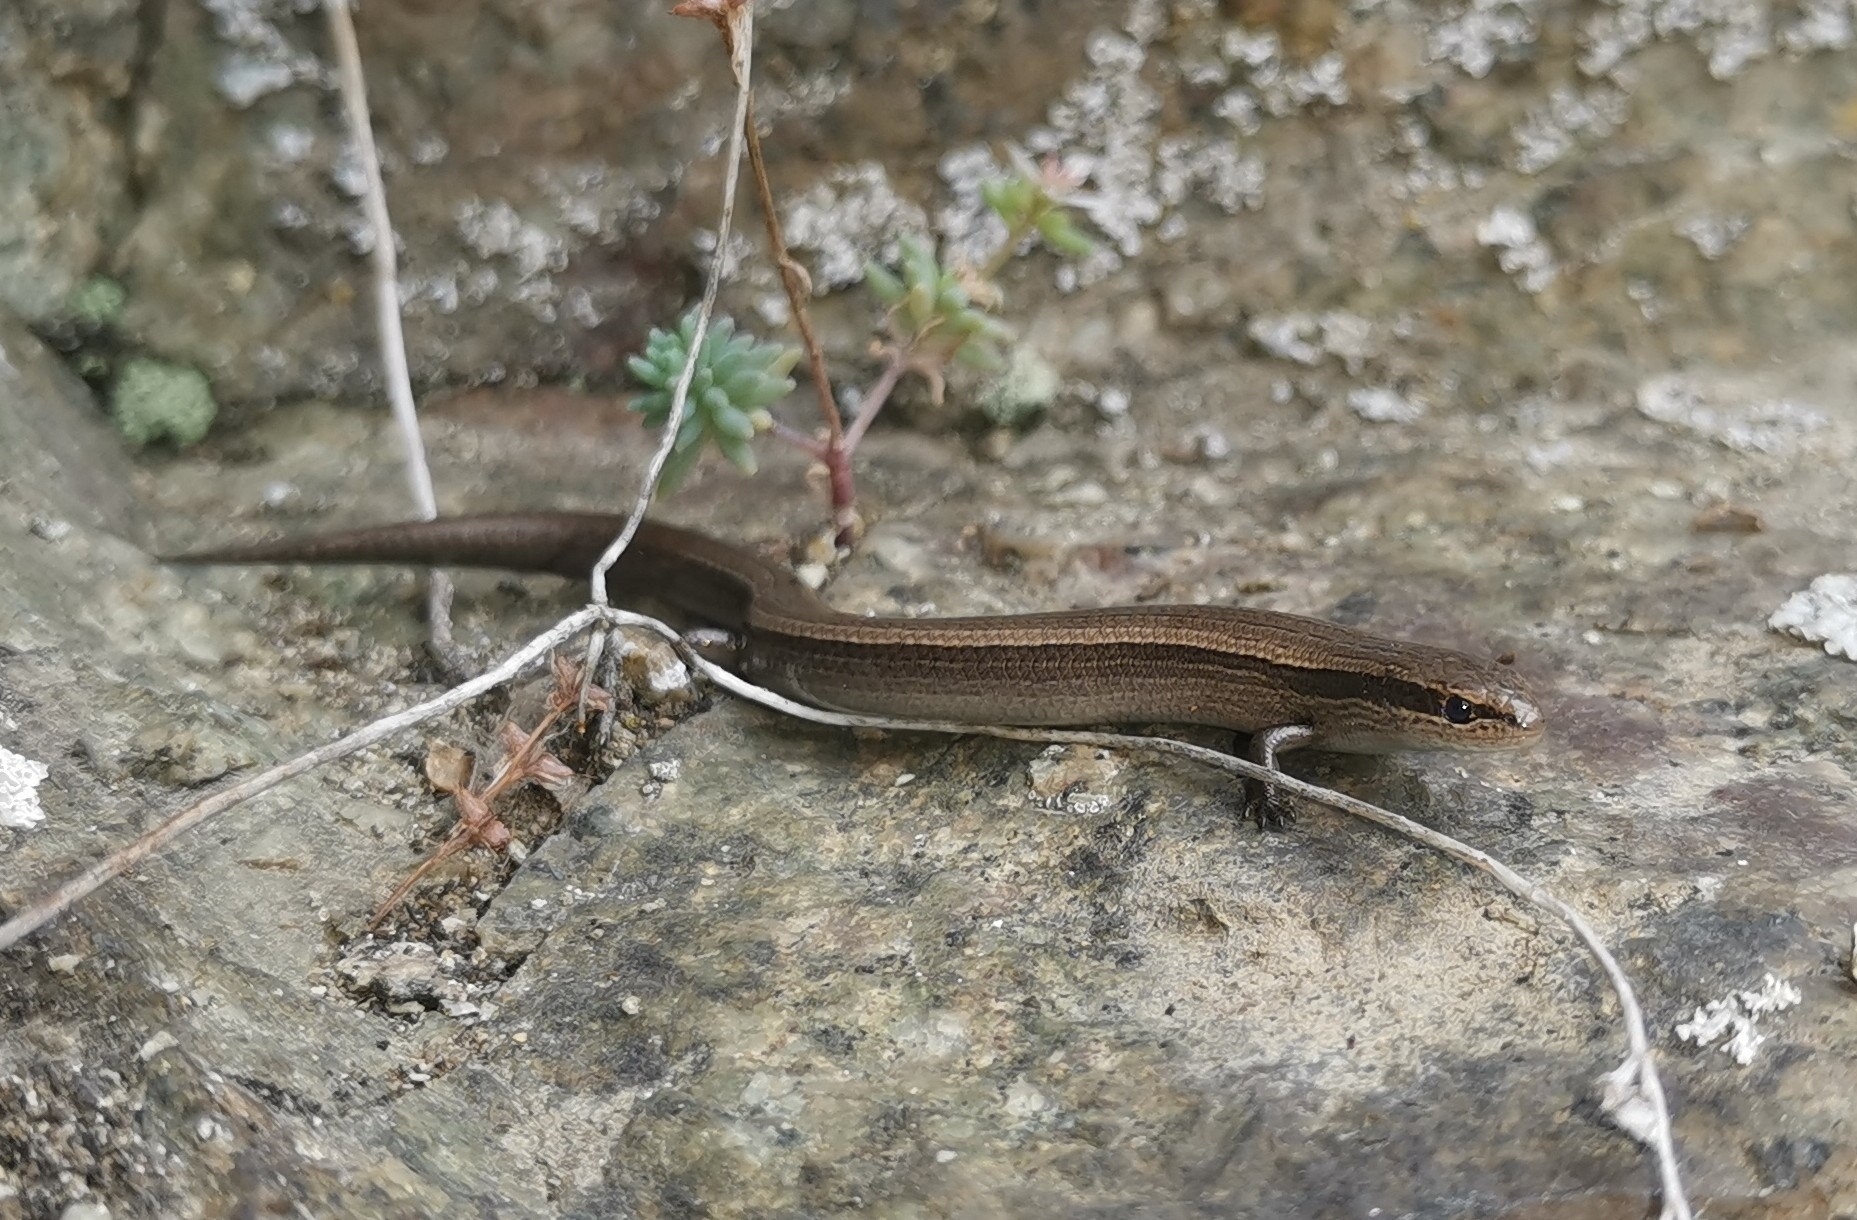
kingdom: Animalia
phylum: Chordata
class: Squamata
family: Scincidae
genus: Ablepharus
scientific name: Ablepharus kitaibelii
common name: Juniper skink
